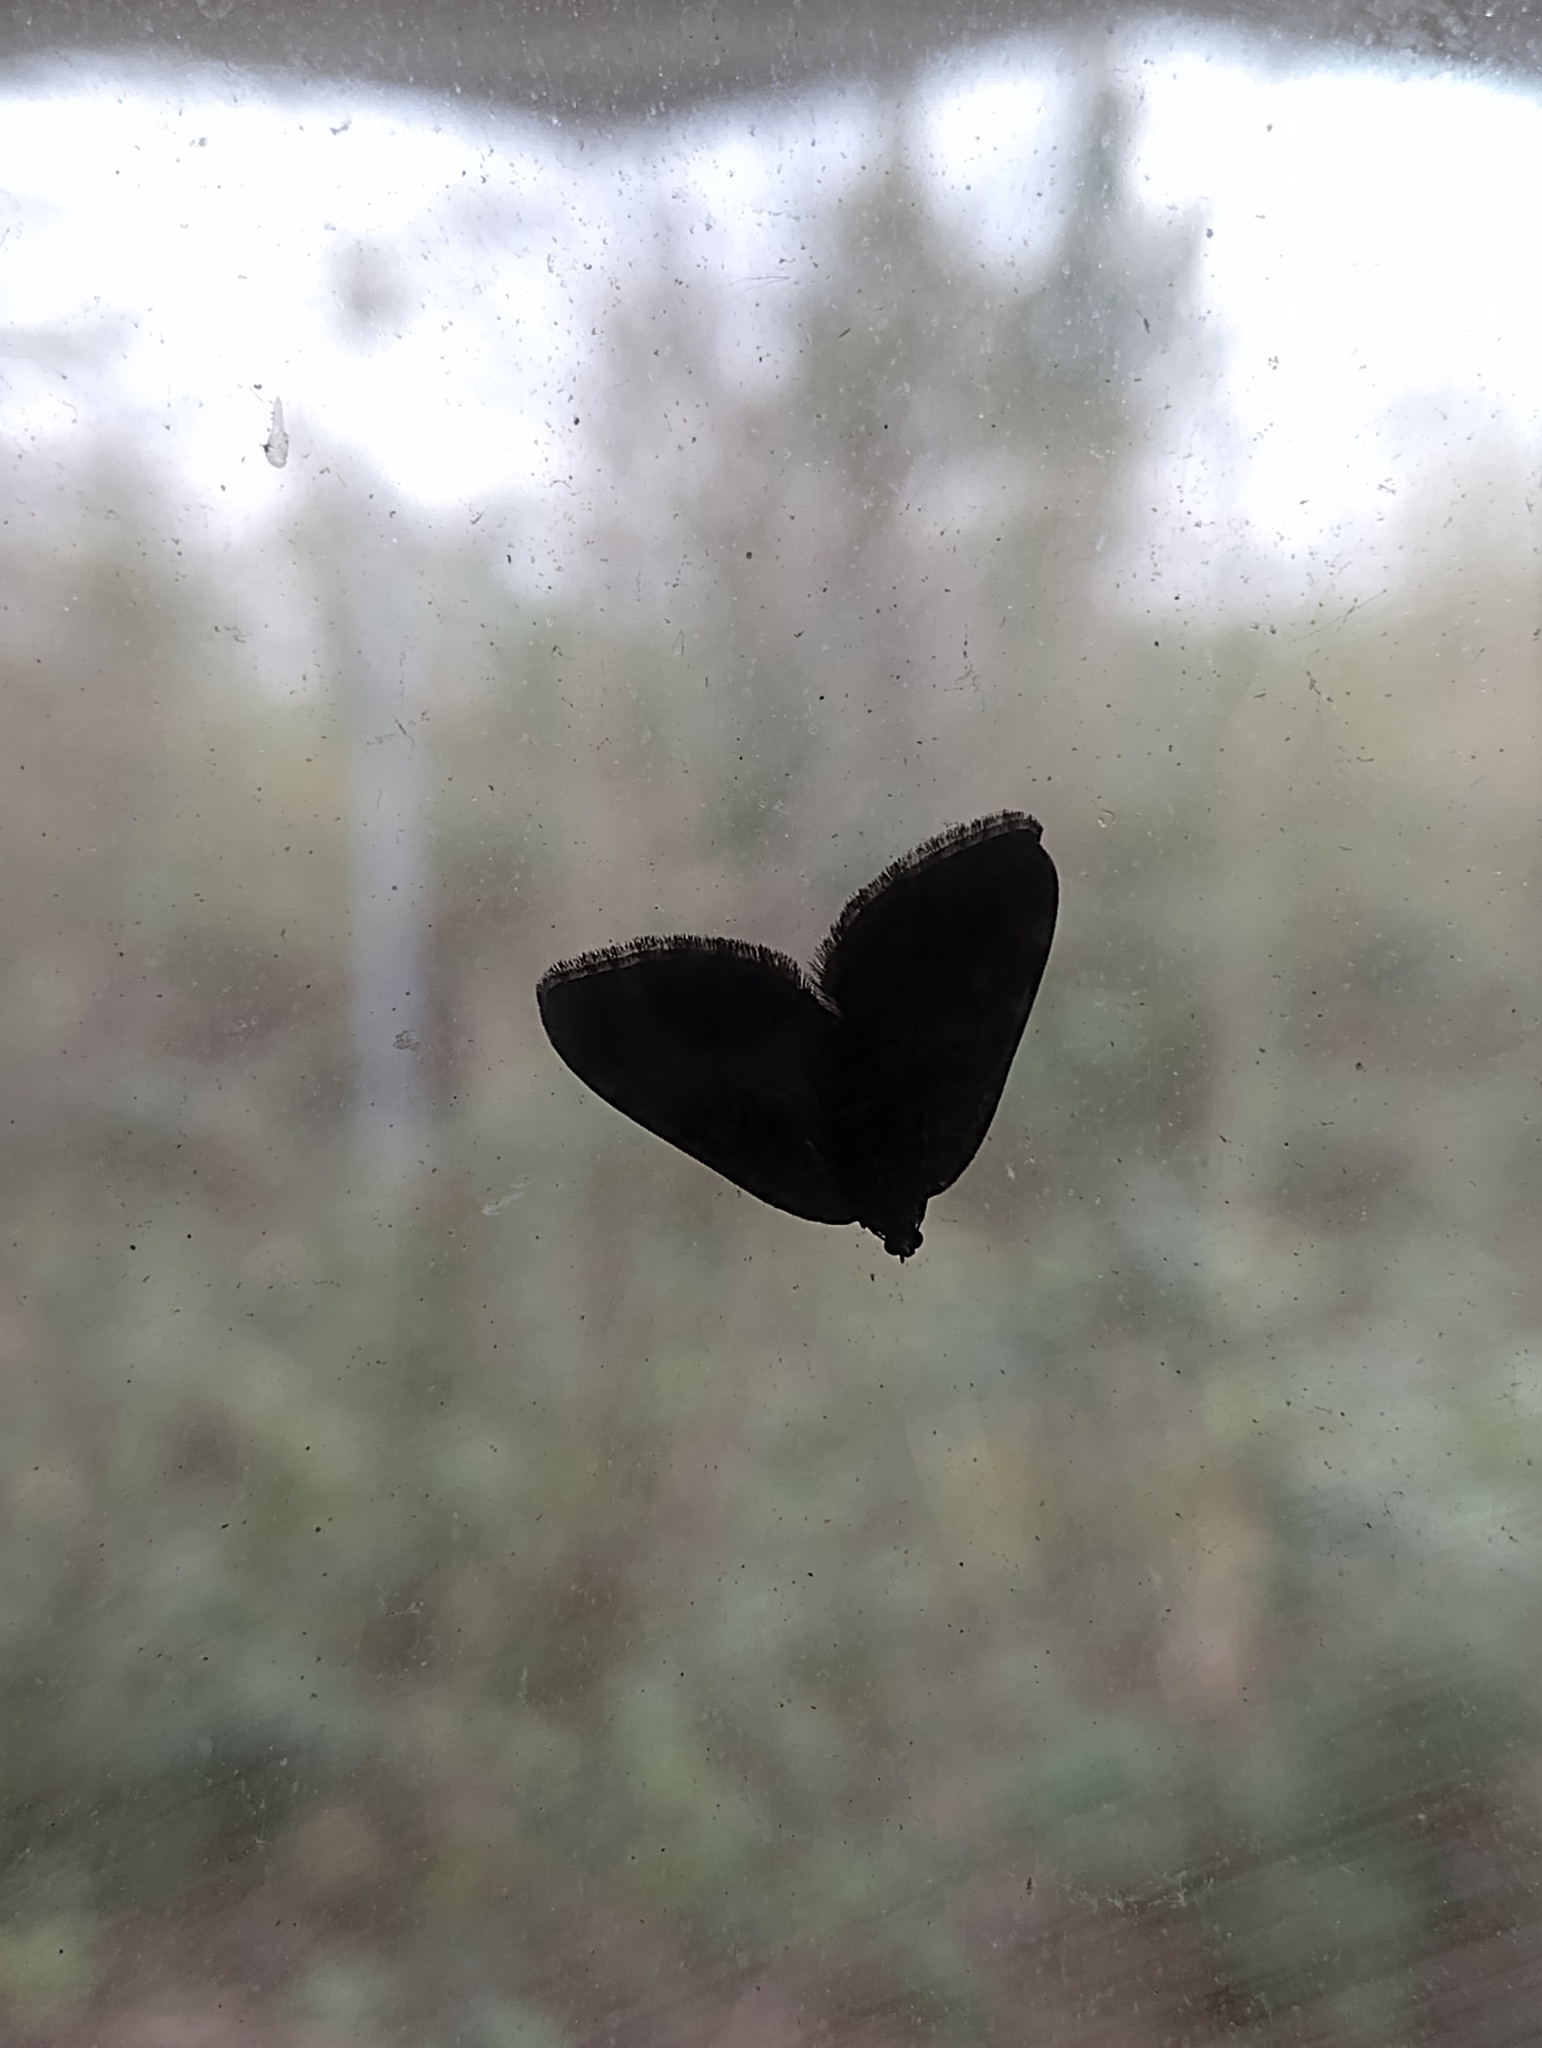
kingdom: Animalia
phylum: Arthropoda
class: Insecta
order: Lepidoptera
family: Geometridae
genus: Anticlea
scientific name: Anticlea derivata
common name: Streamer
